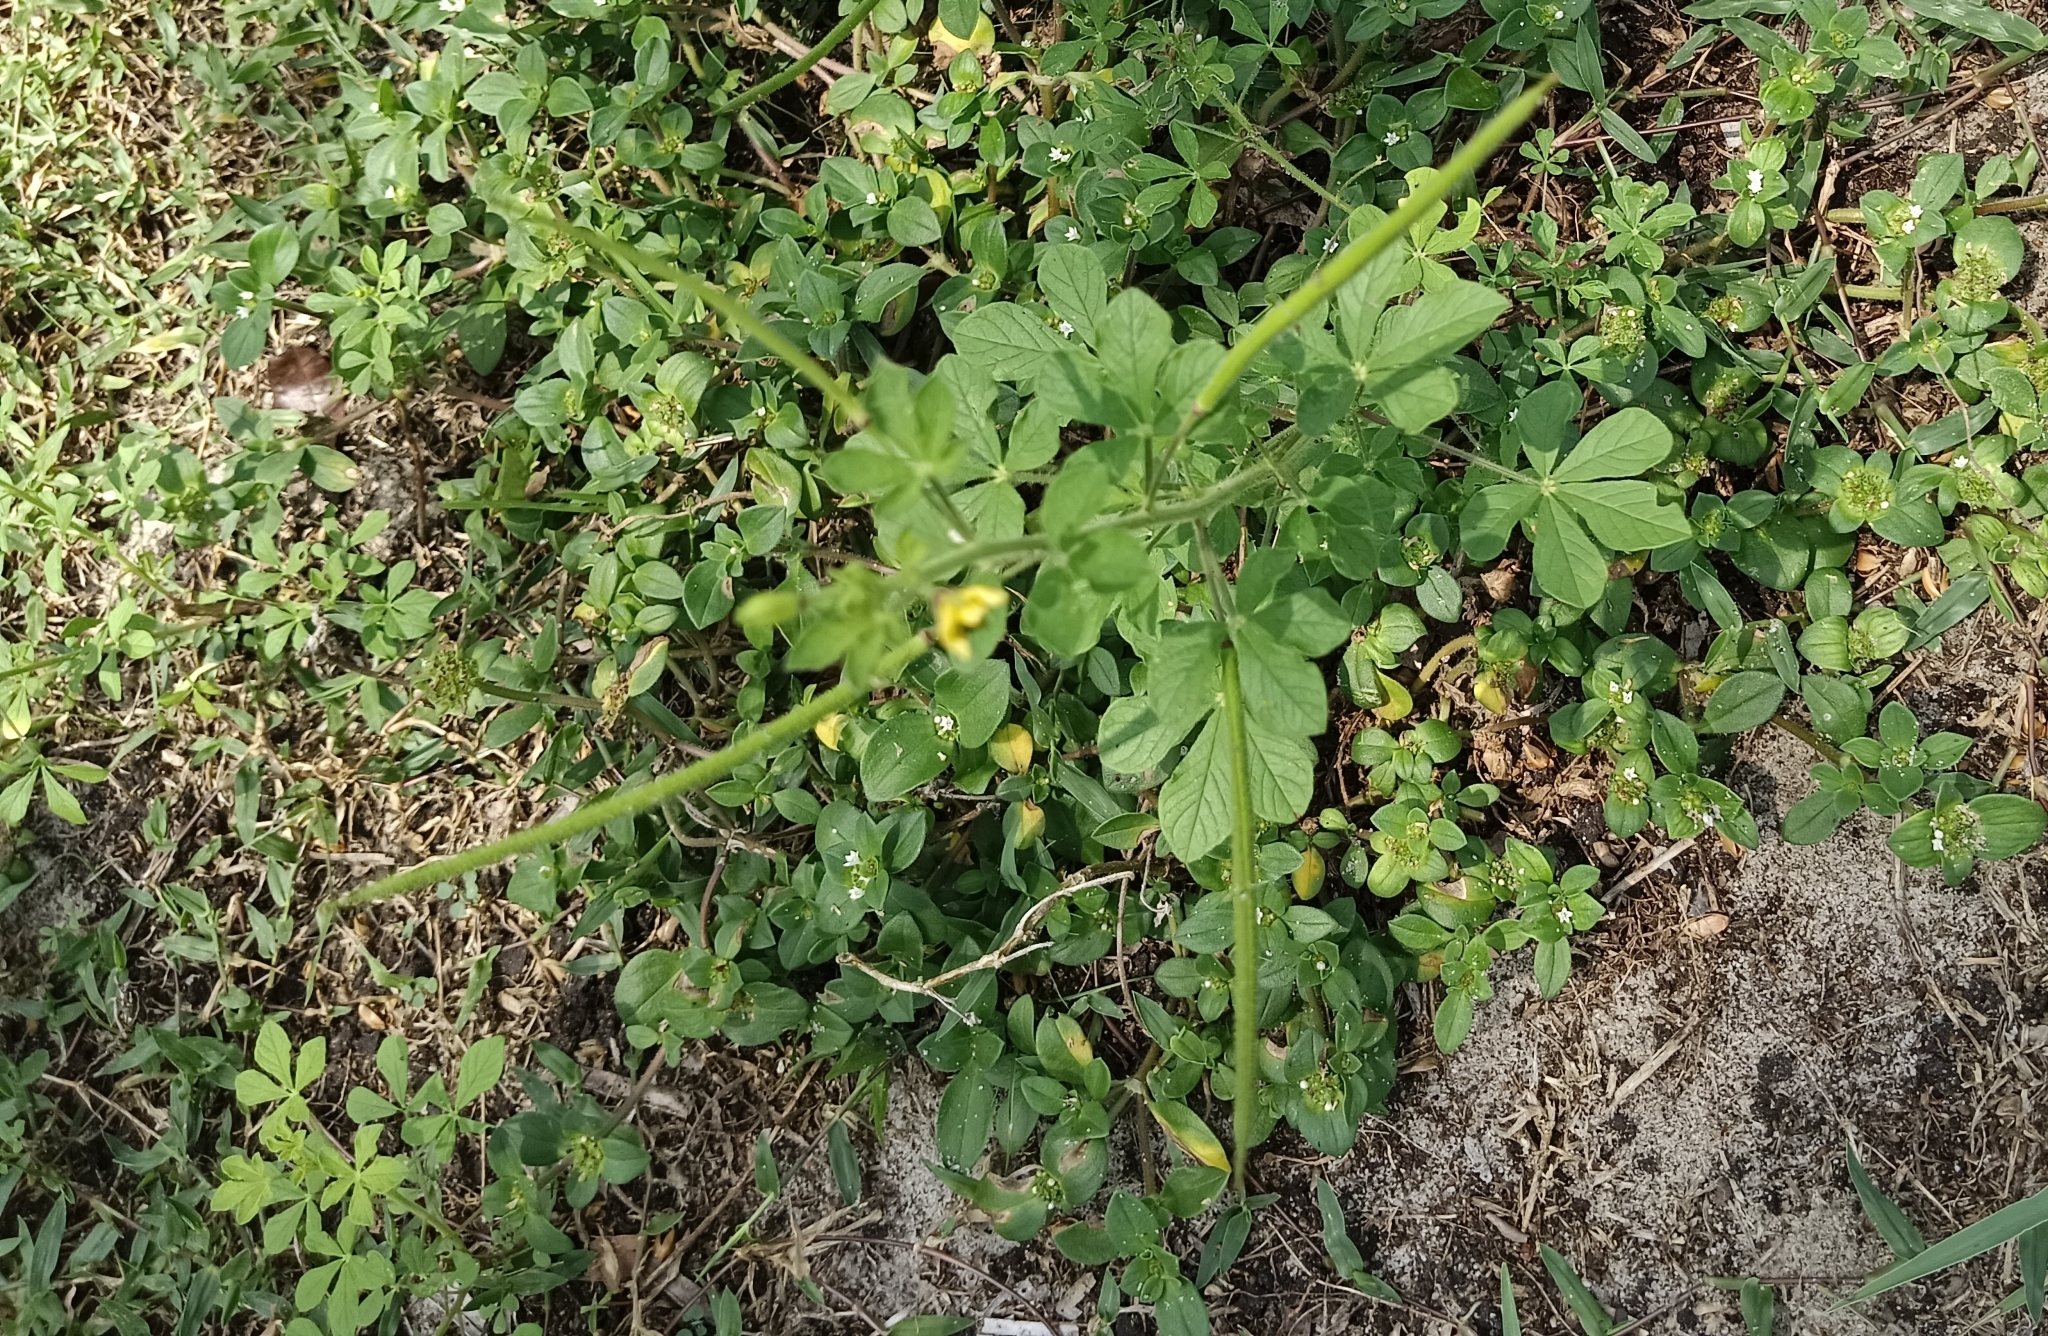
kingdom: Plantae
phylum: Tracheophyta
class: Magnoliopsida
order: Brassicales
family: Cleomaceae
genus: Arivela
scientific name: Arivela viscosa
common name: Asian spiderflower
